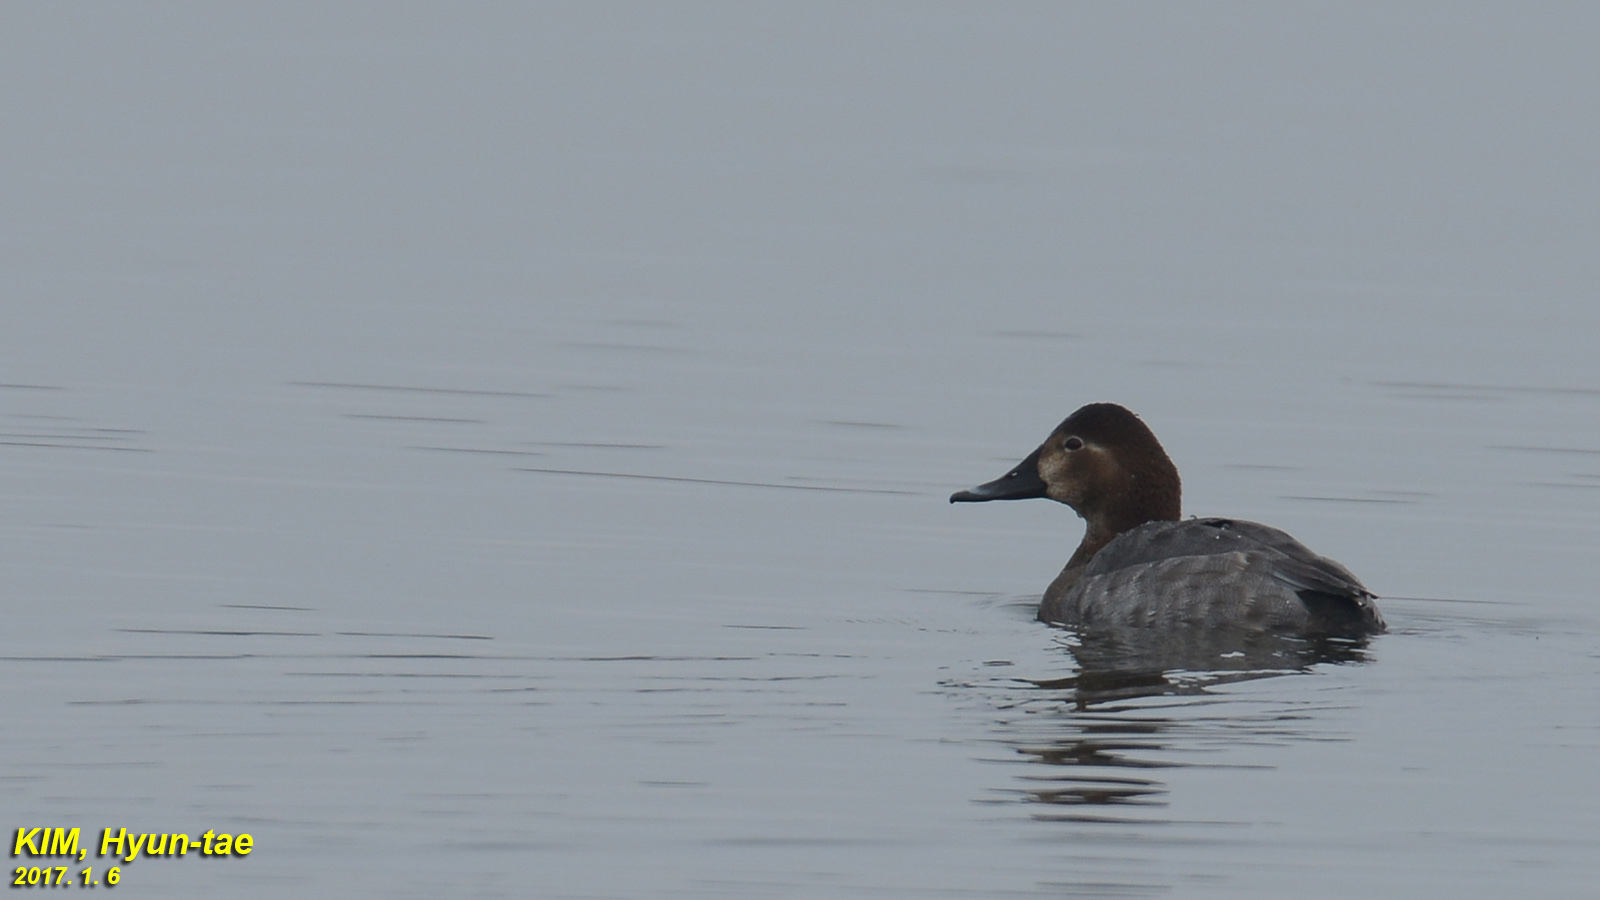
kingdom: Animalia
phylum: Chordata
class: Aves
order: Anseriformes
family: Anatidae
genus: Aythya
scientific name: Aythya ferina
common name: Common pochard
